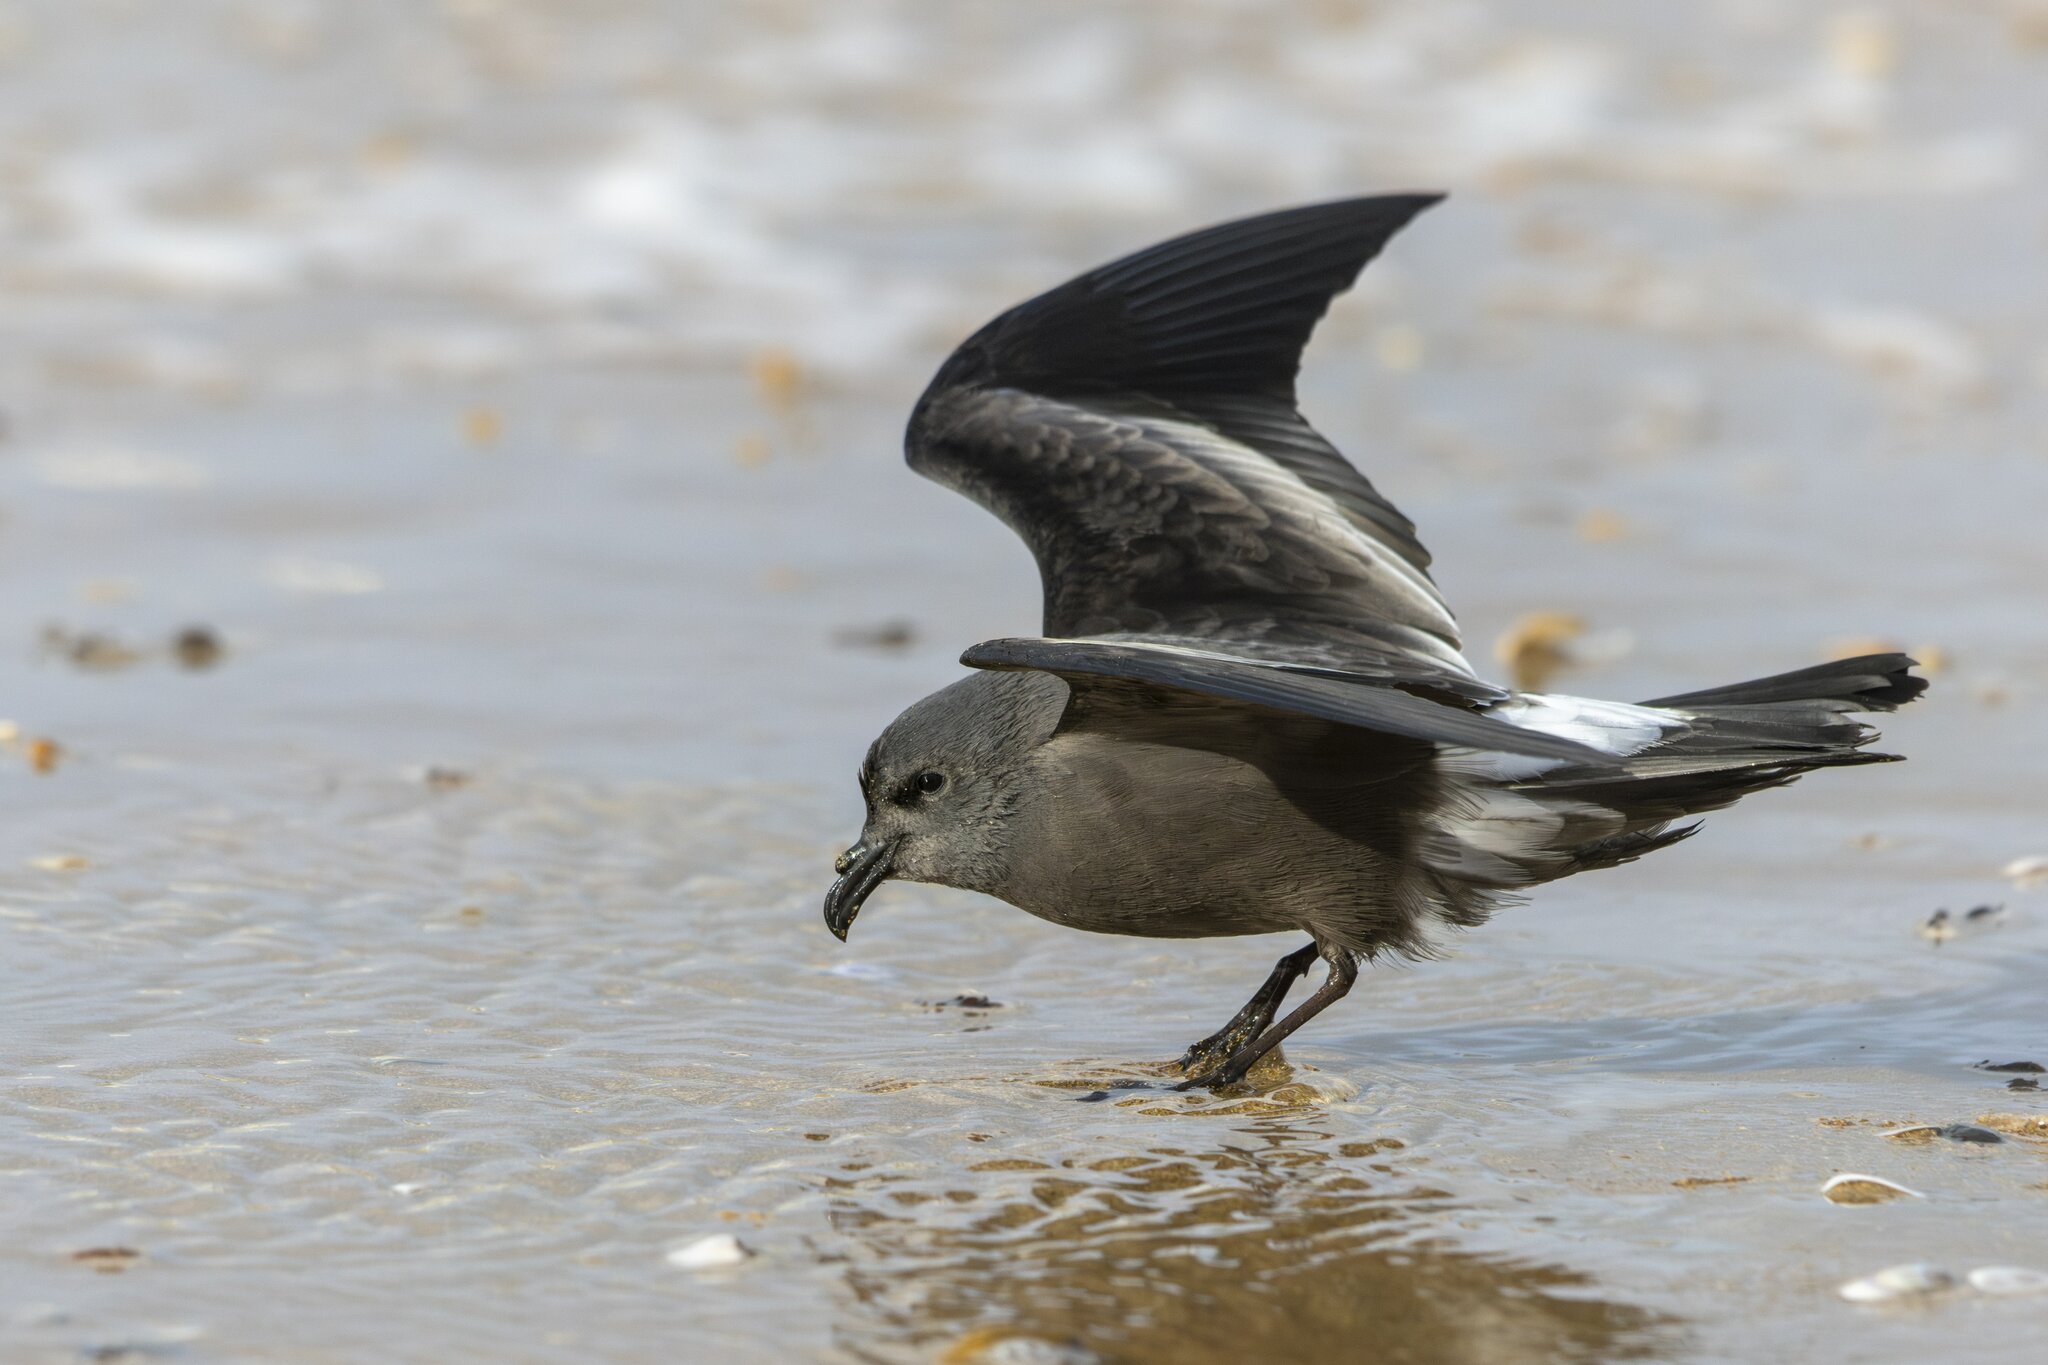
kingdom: Animalia
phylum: Chordata
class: Aves
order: Procellariiformes
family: Hydrobatidae
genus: Oceanodroma
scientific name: Oceanodroma leucorhoa
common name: Leach's storm-petrel
